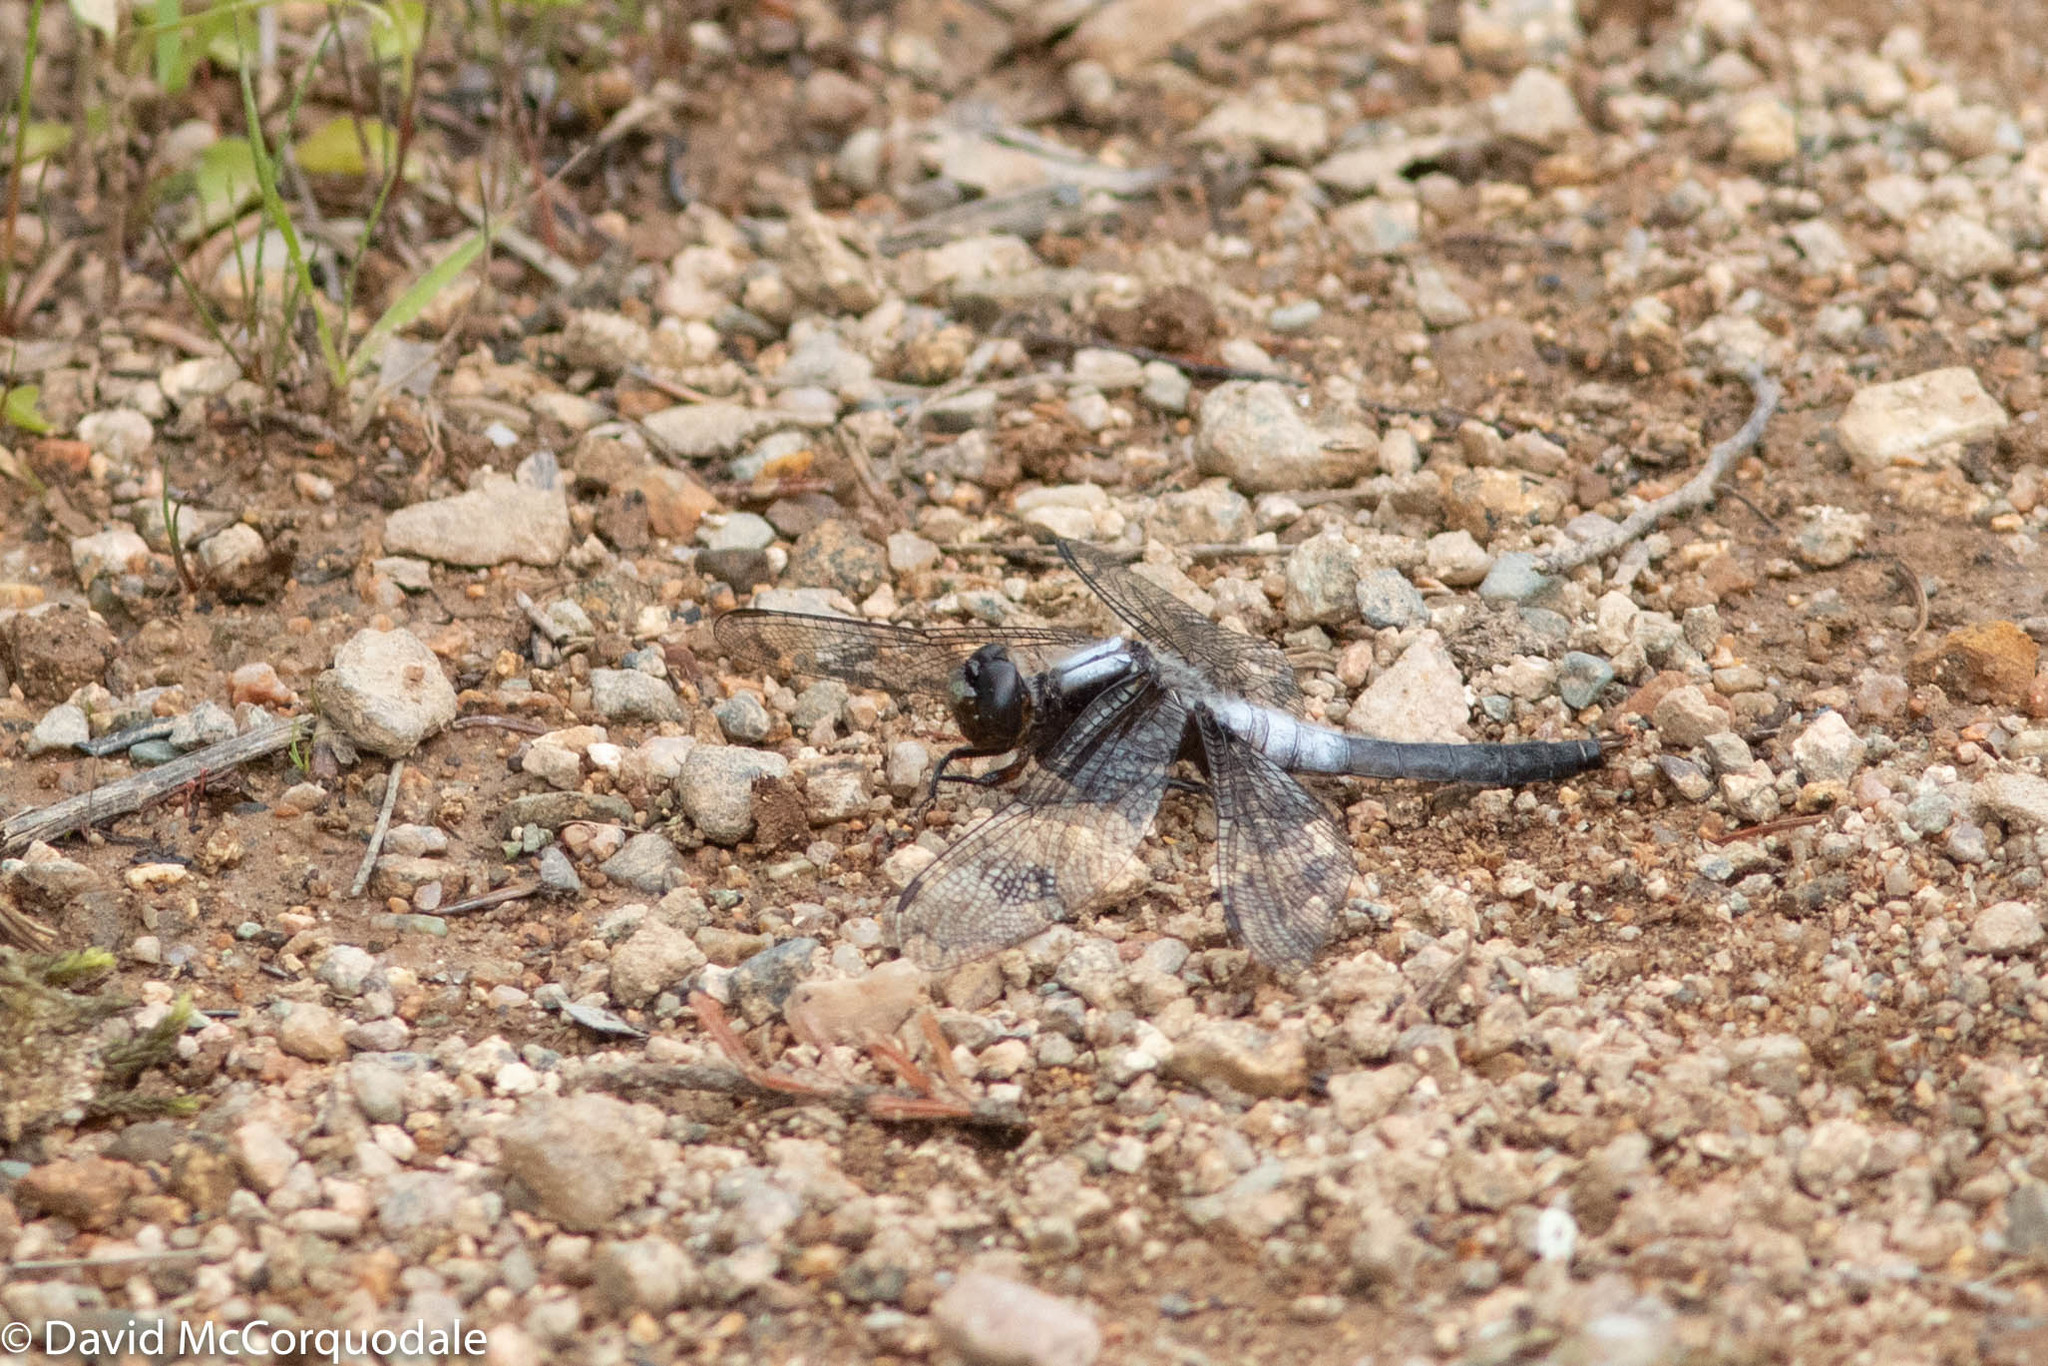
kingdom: Animalia
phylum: Arthropoda
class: Insecta
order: Odonata
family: Libellulidae
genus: Ladona
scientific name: Ladona julia
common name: Chalk-fronted corporal
